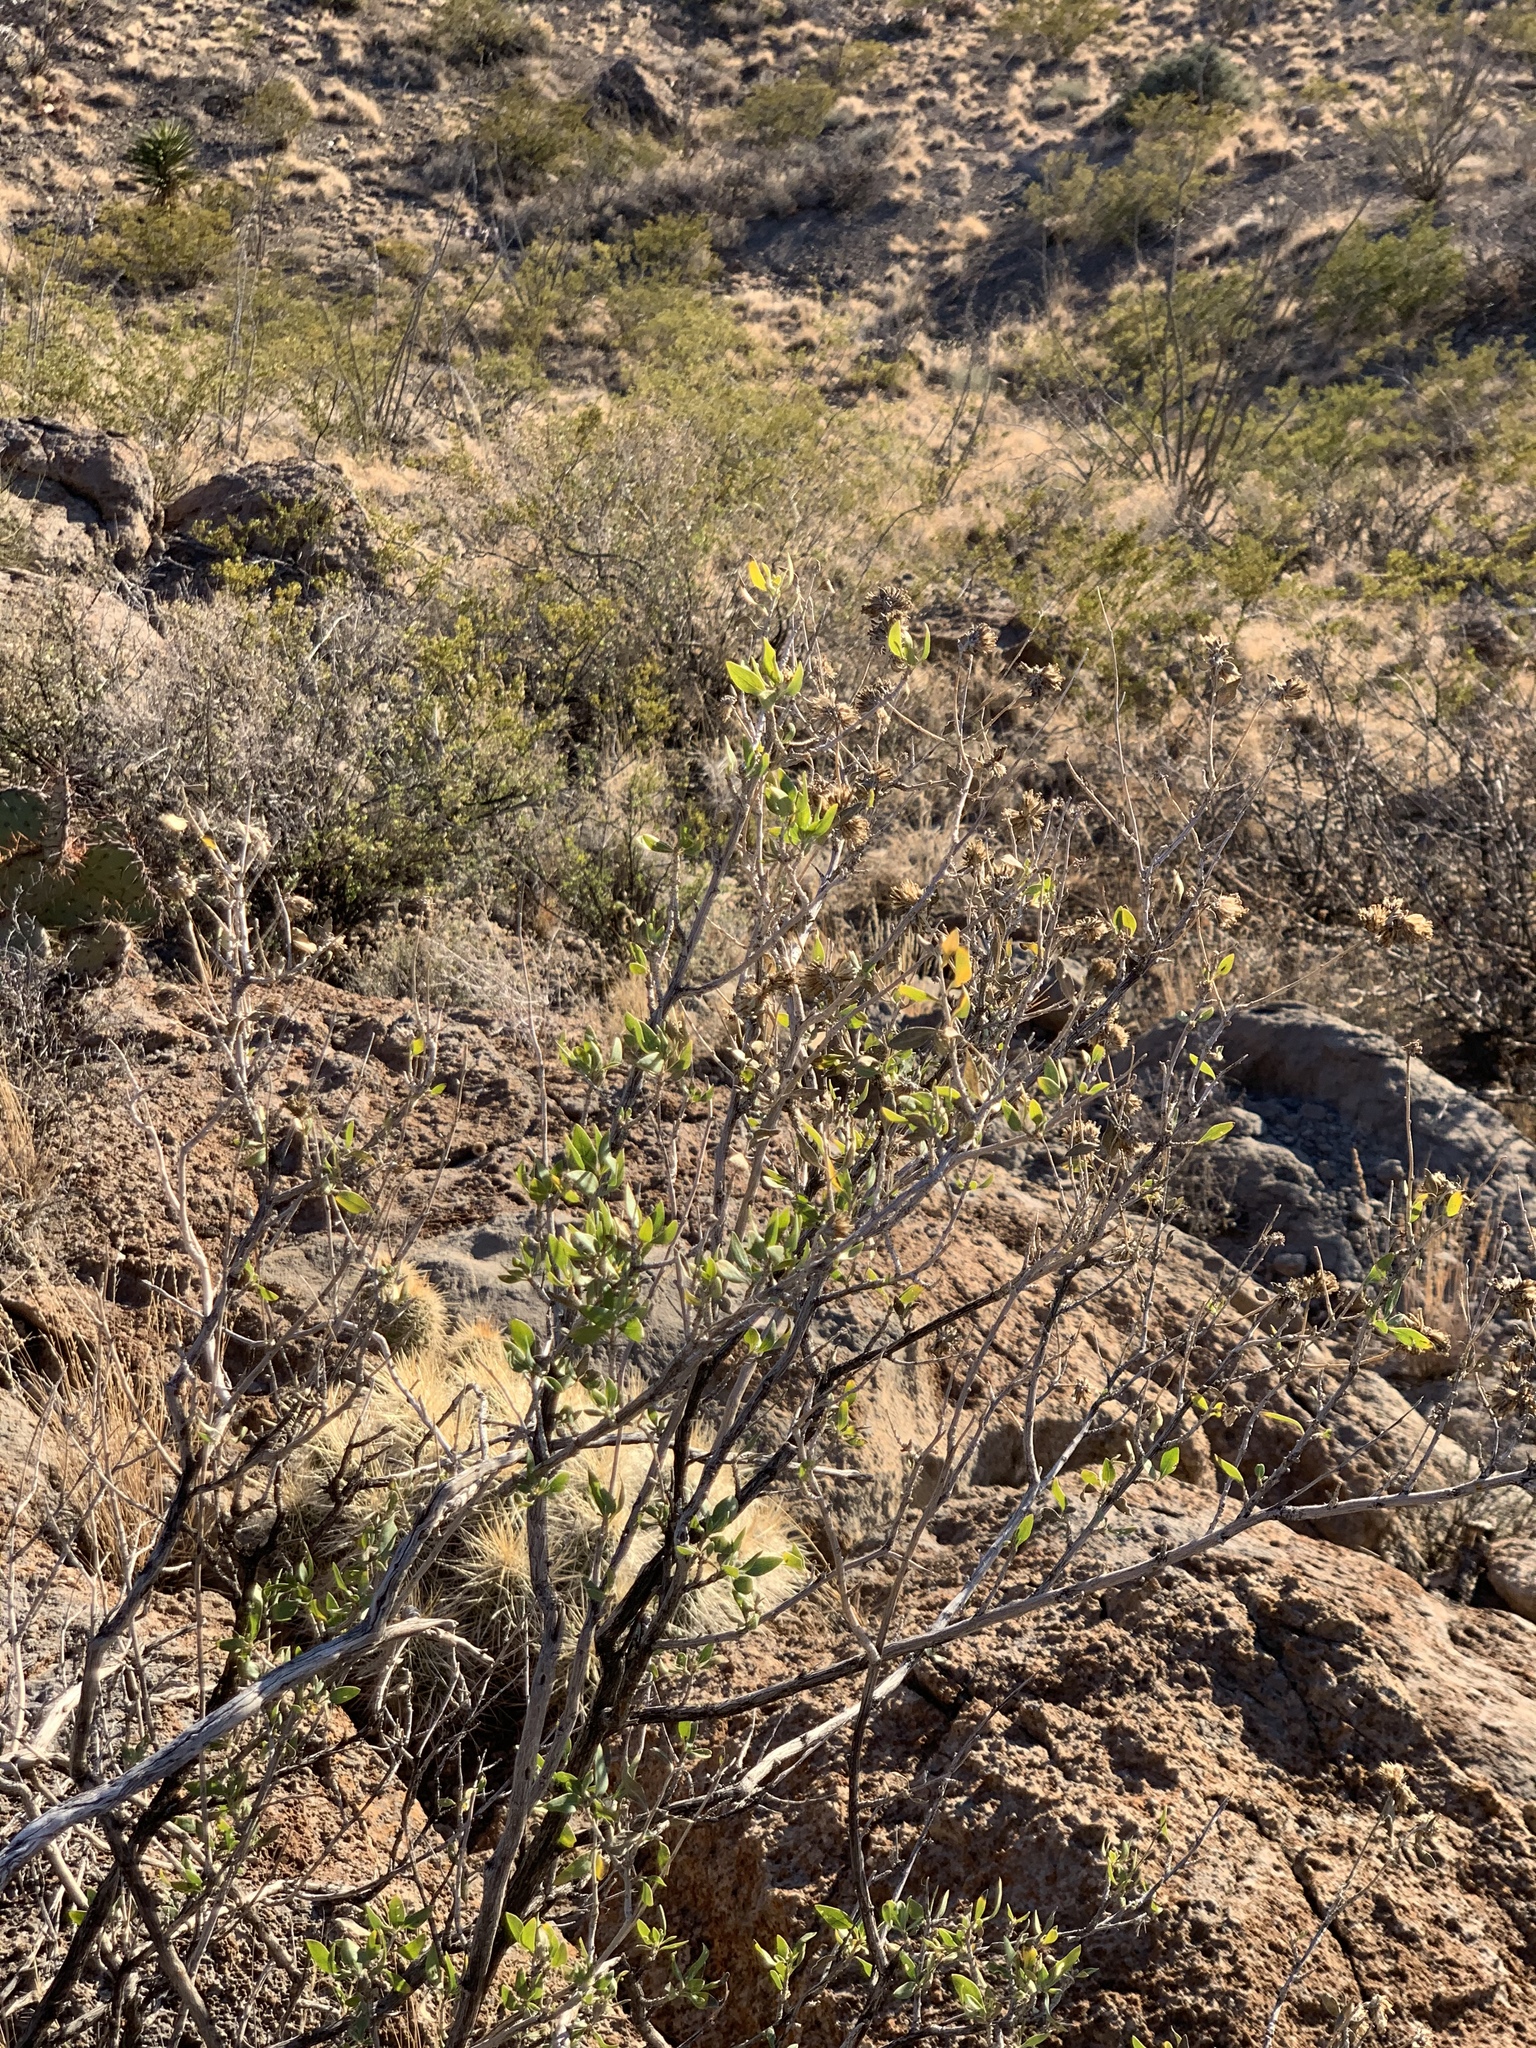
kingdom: Plantae
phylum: Tracheophyta
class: Magnoliopsida
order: Asterales
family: Asteraceae
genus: Flourensia
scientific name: Flourensia cernua
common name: Varnishbush
